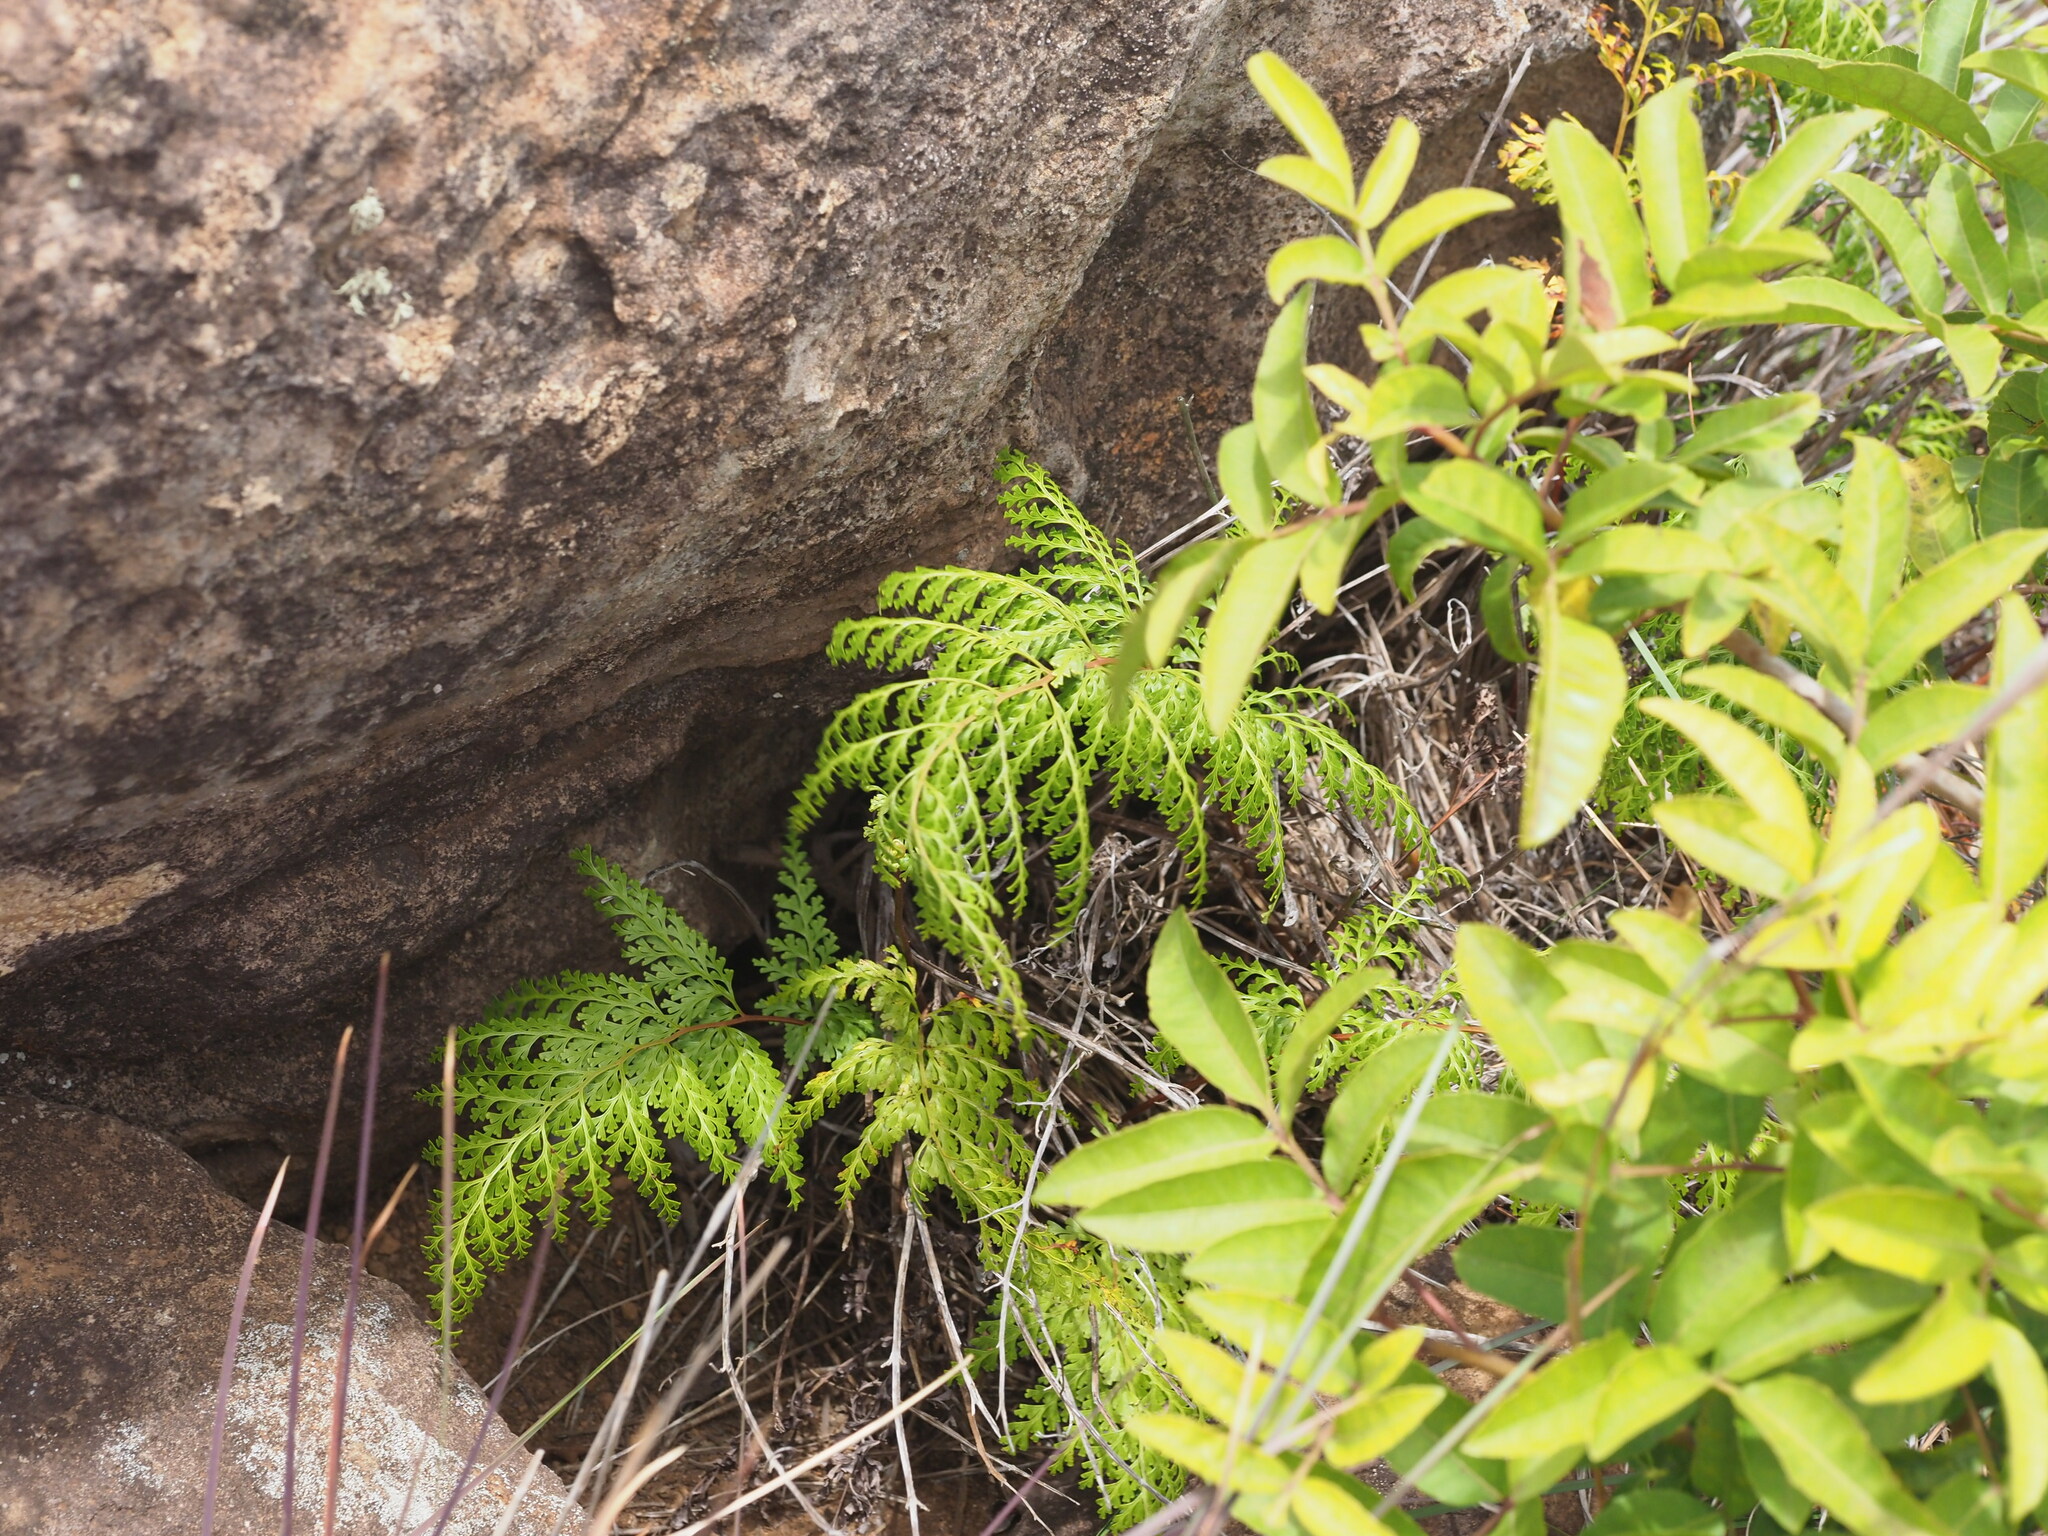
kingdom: Plantae
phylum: Tracheophyta
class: Polypodiopsida
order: Polypodiales
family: Lindsaeaceae
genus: Odontosoria
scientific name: Odontosoria chinensis
